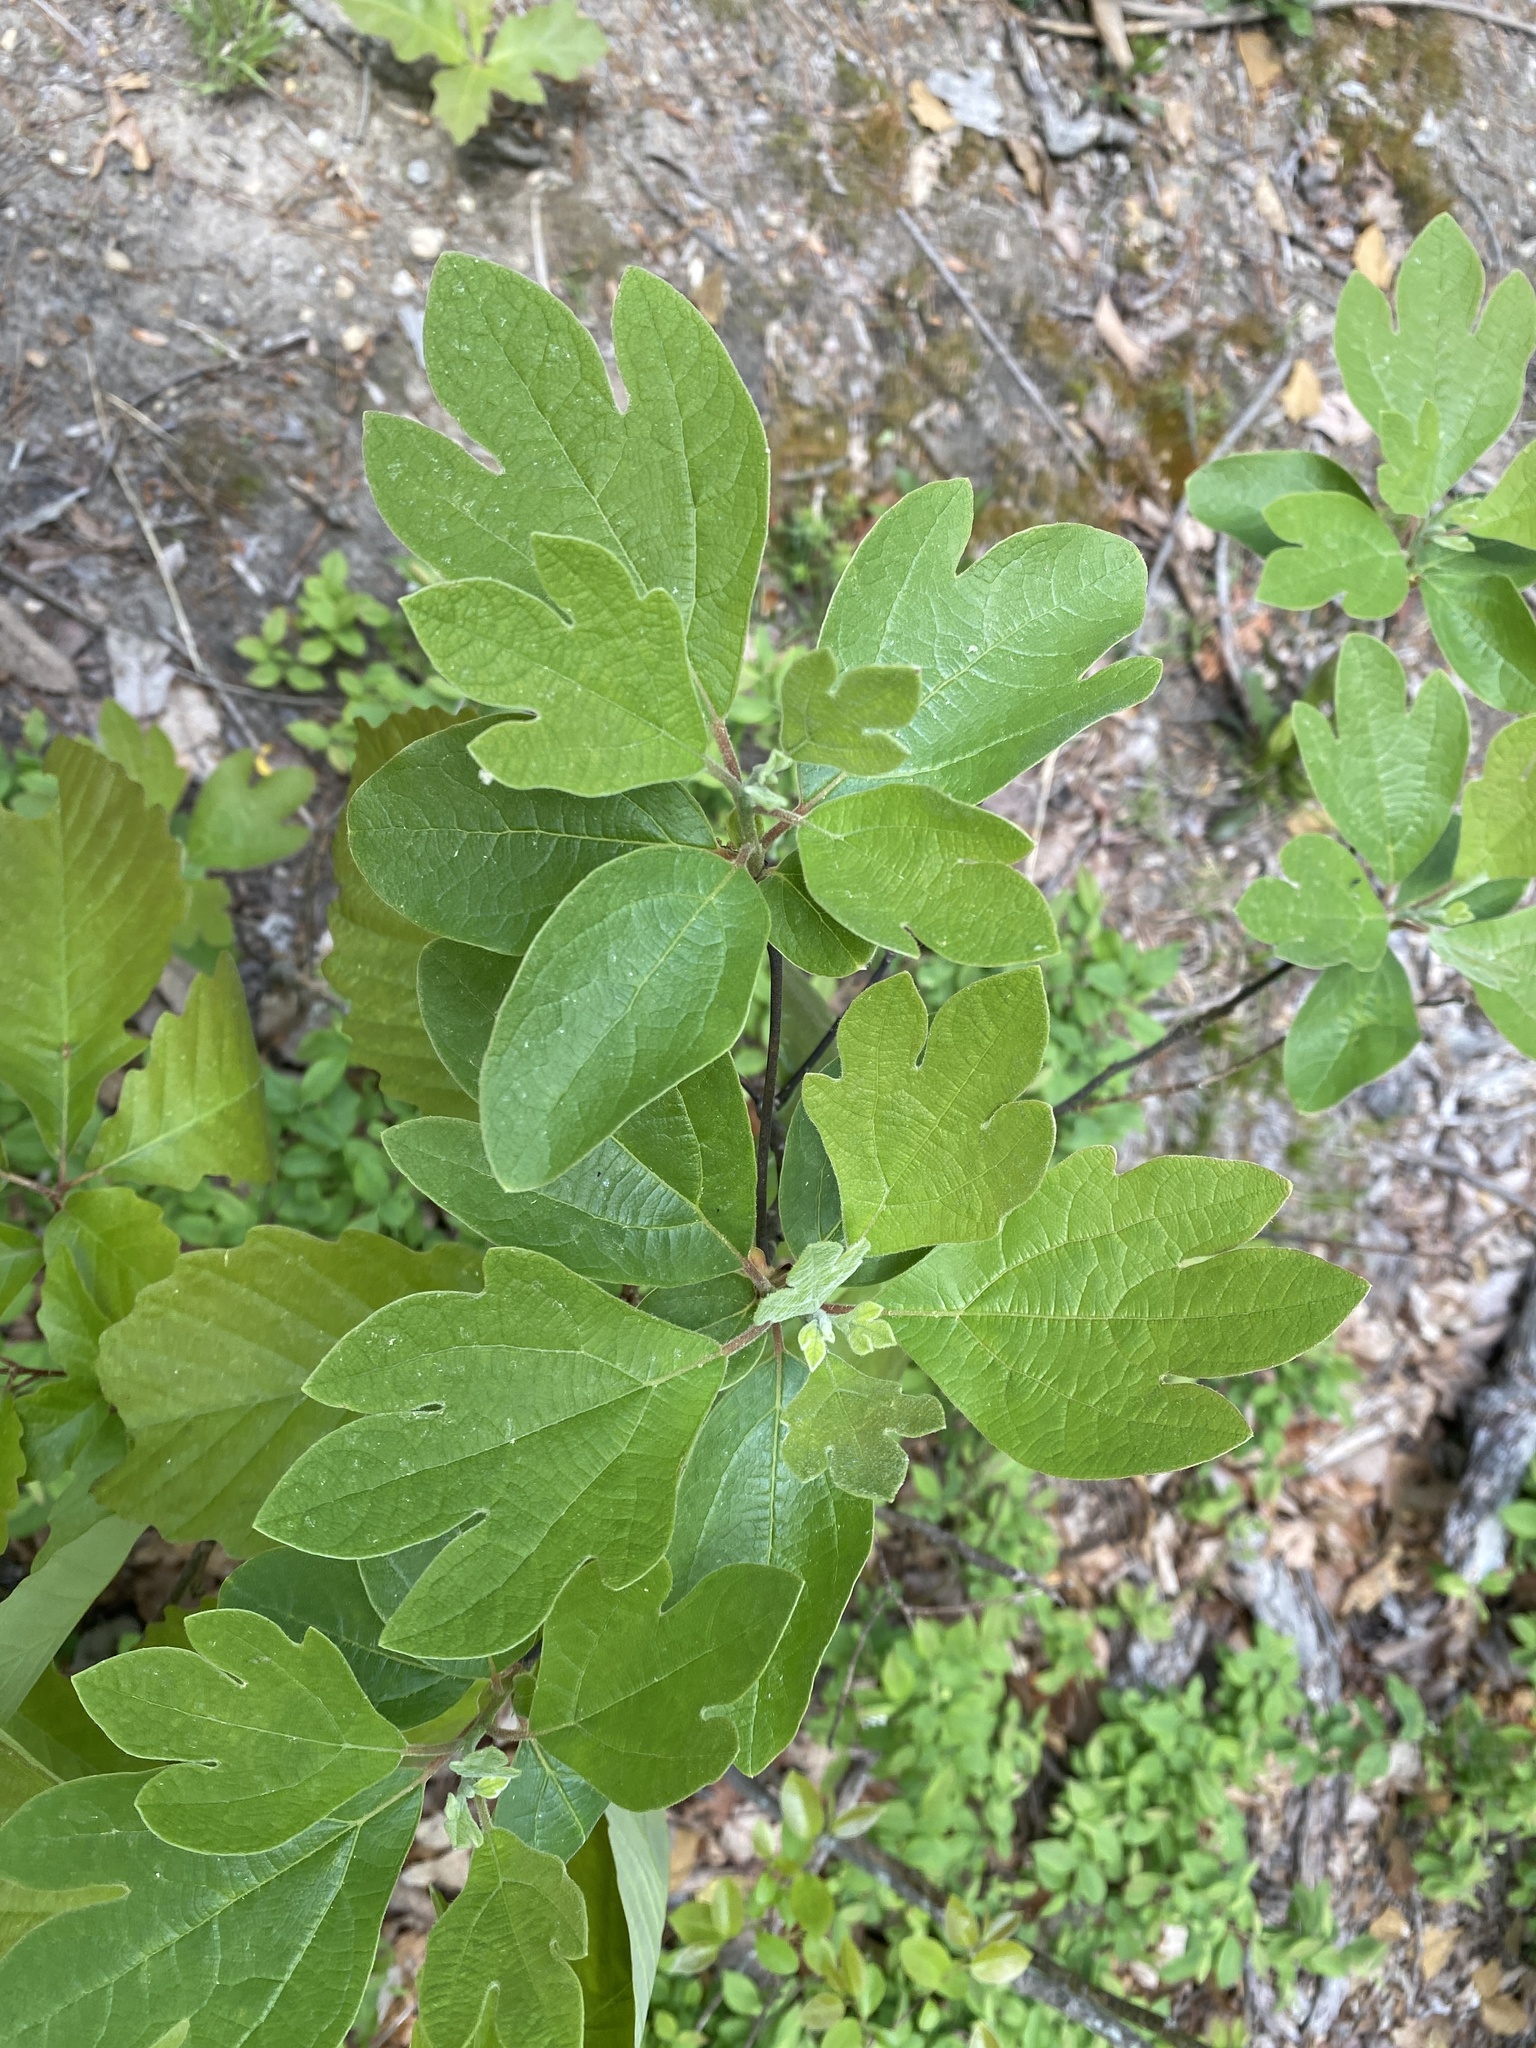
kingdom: Plantae
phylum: Tracheophyta
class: Magnoliopsida
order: Laurales
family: Lauraceae
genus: Sassafras
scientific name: Sassafras albidum
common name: Sassafras
